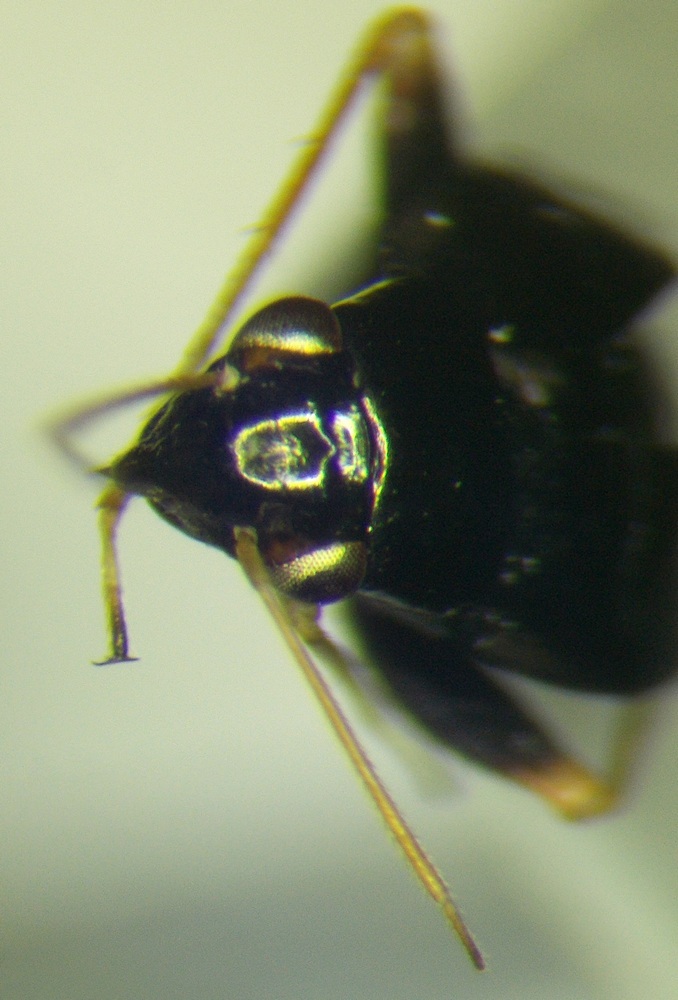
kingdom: Animalia
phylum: Arthropoda
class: Insecta
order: Hemiptera
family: Miridae
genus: Halticus
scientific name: Halticus apterus
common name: Fleahopper
